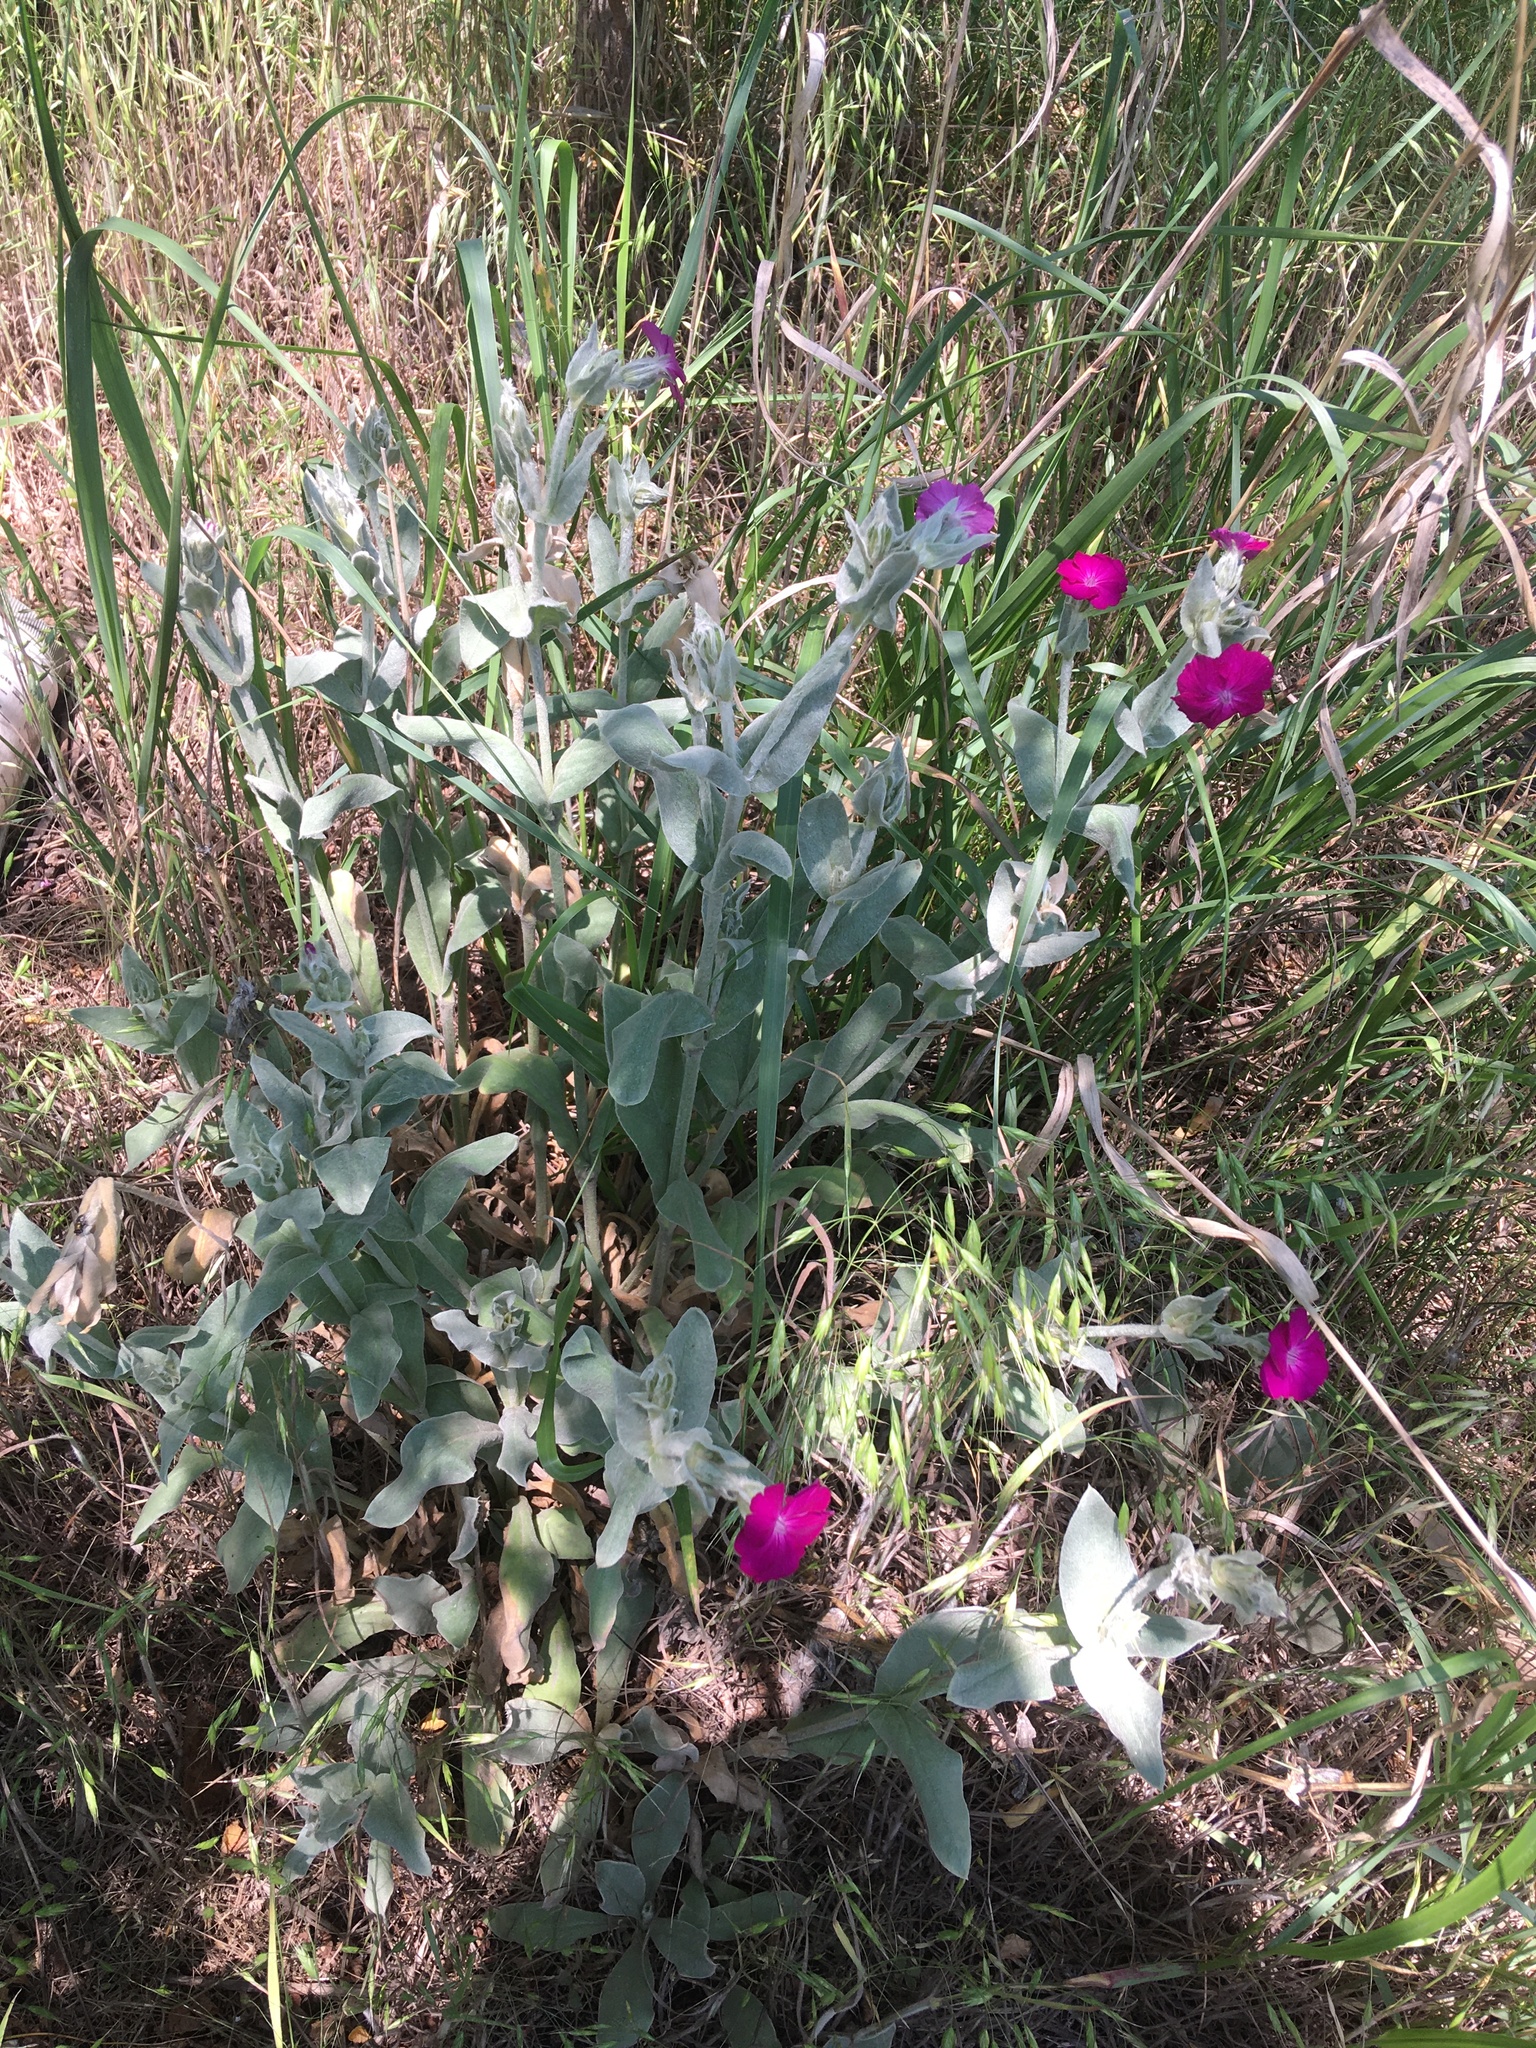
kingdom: Plantae
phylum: Tracheophyta
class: Magnoliopsida
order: Caryophyllales
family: Caryophyllaceae
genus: Silene
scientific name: Silene coronaria
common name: Rose campion
